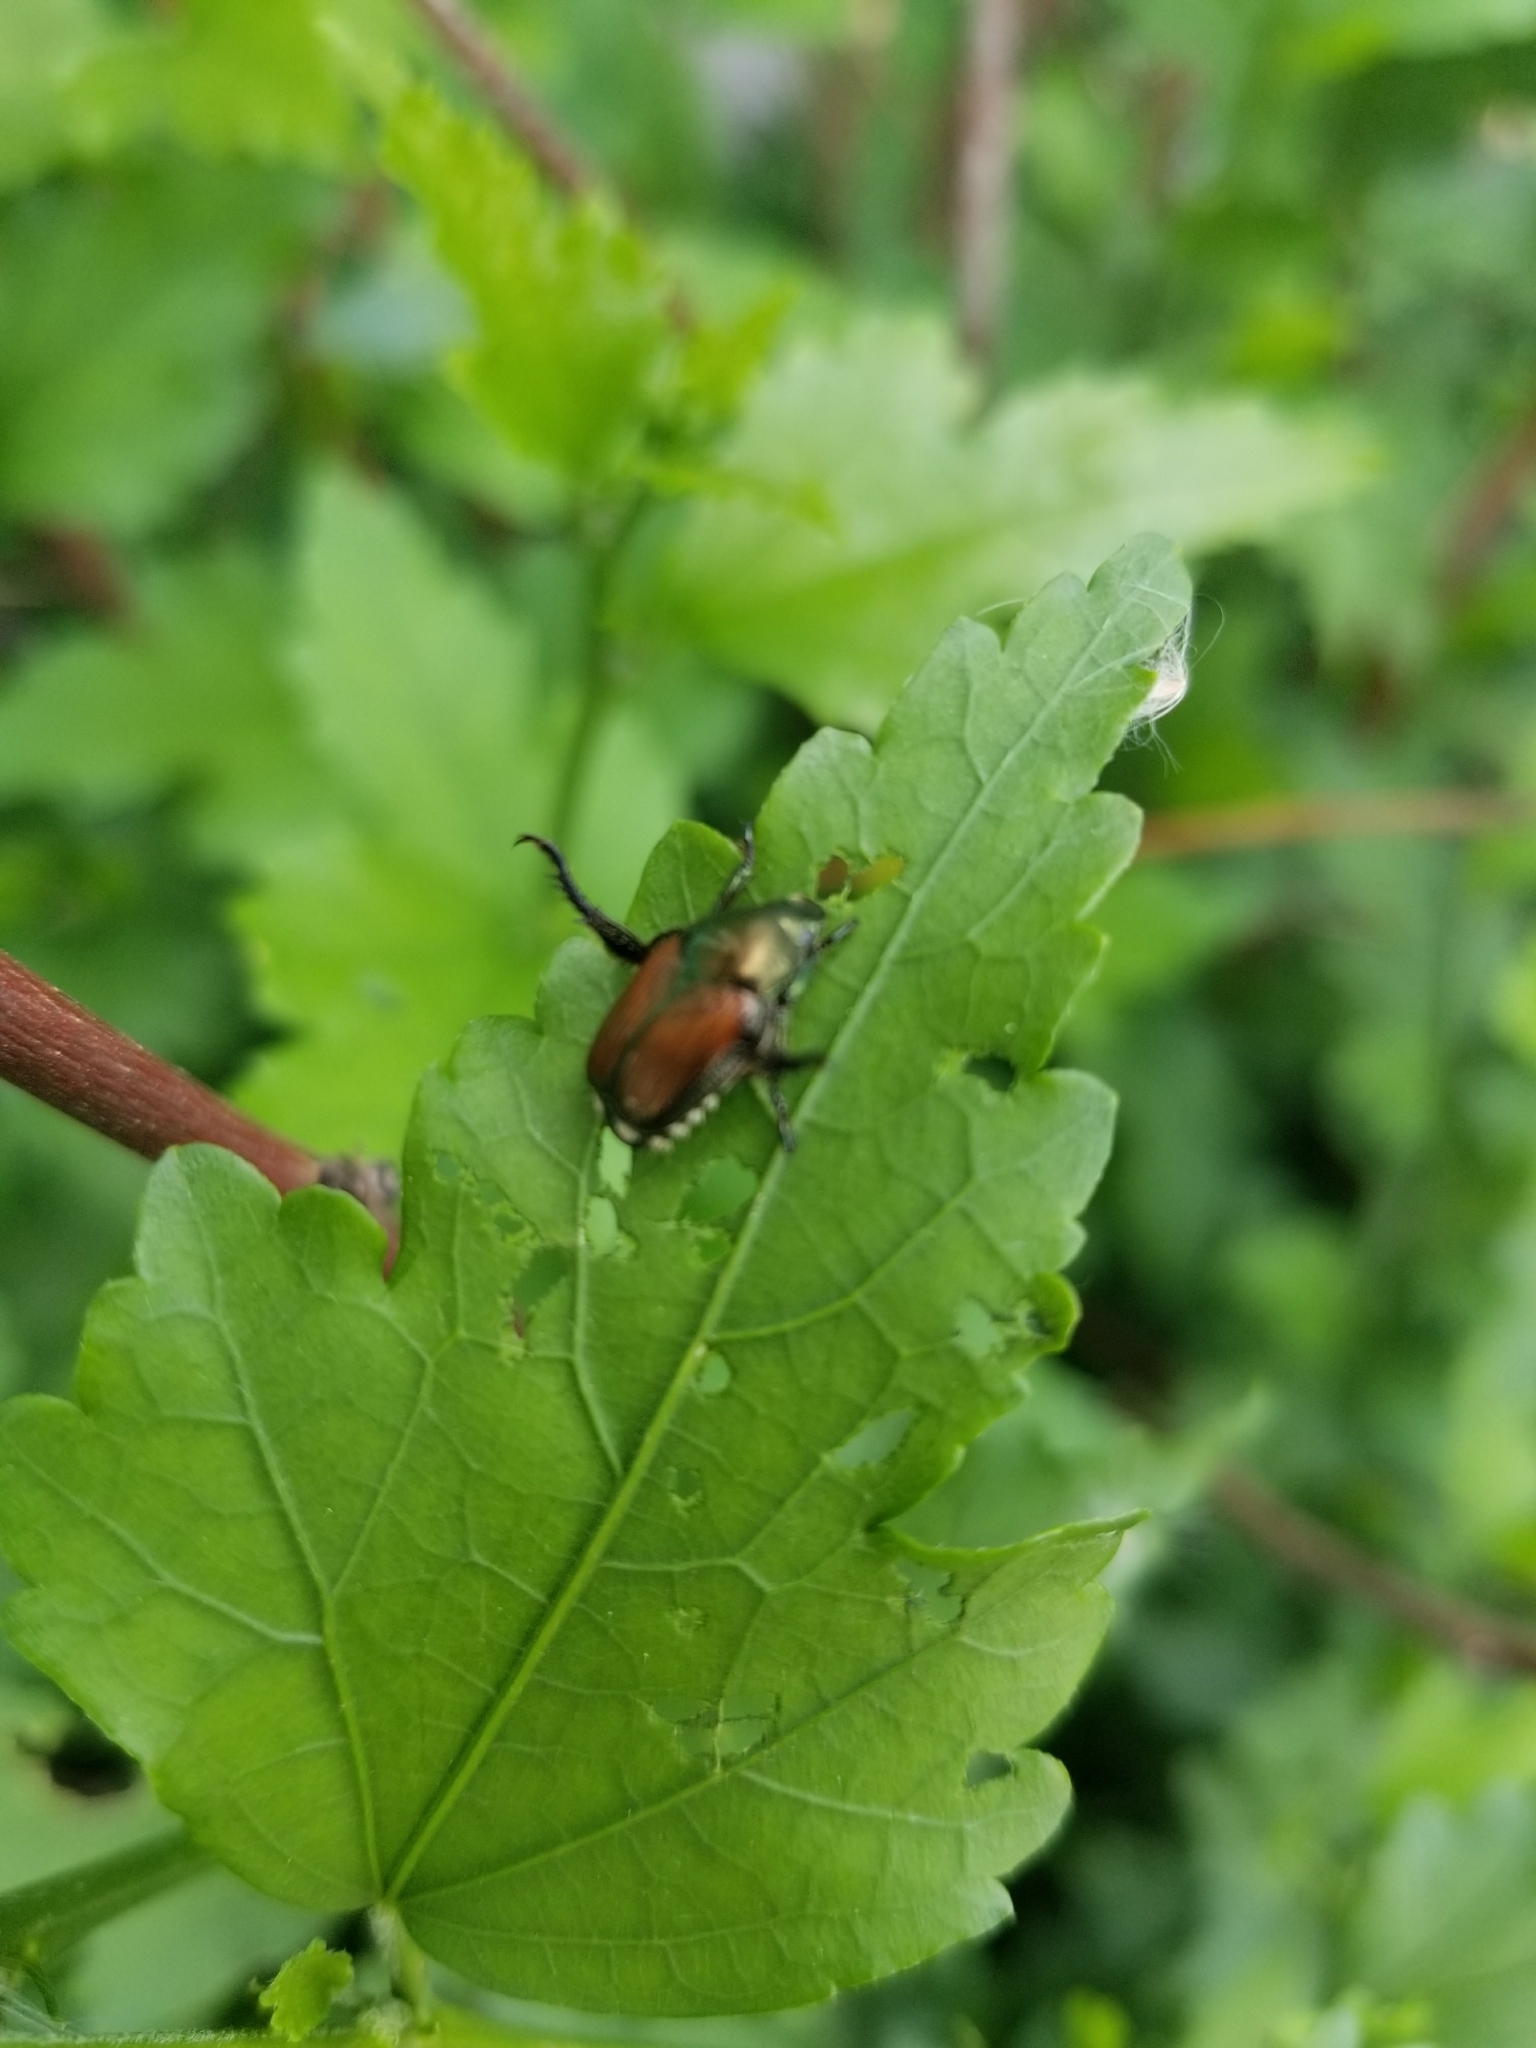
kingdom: Animalia
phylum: Arthropoda
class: Insecta
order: Coleoptera
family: Scarabaeidae
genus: Popillia
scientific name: Popillia japonica
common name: Japanese beetle
